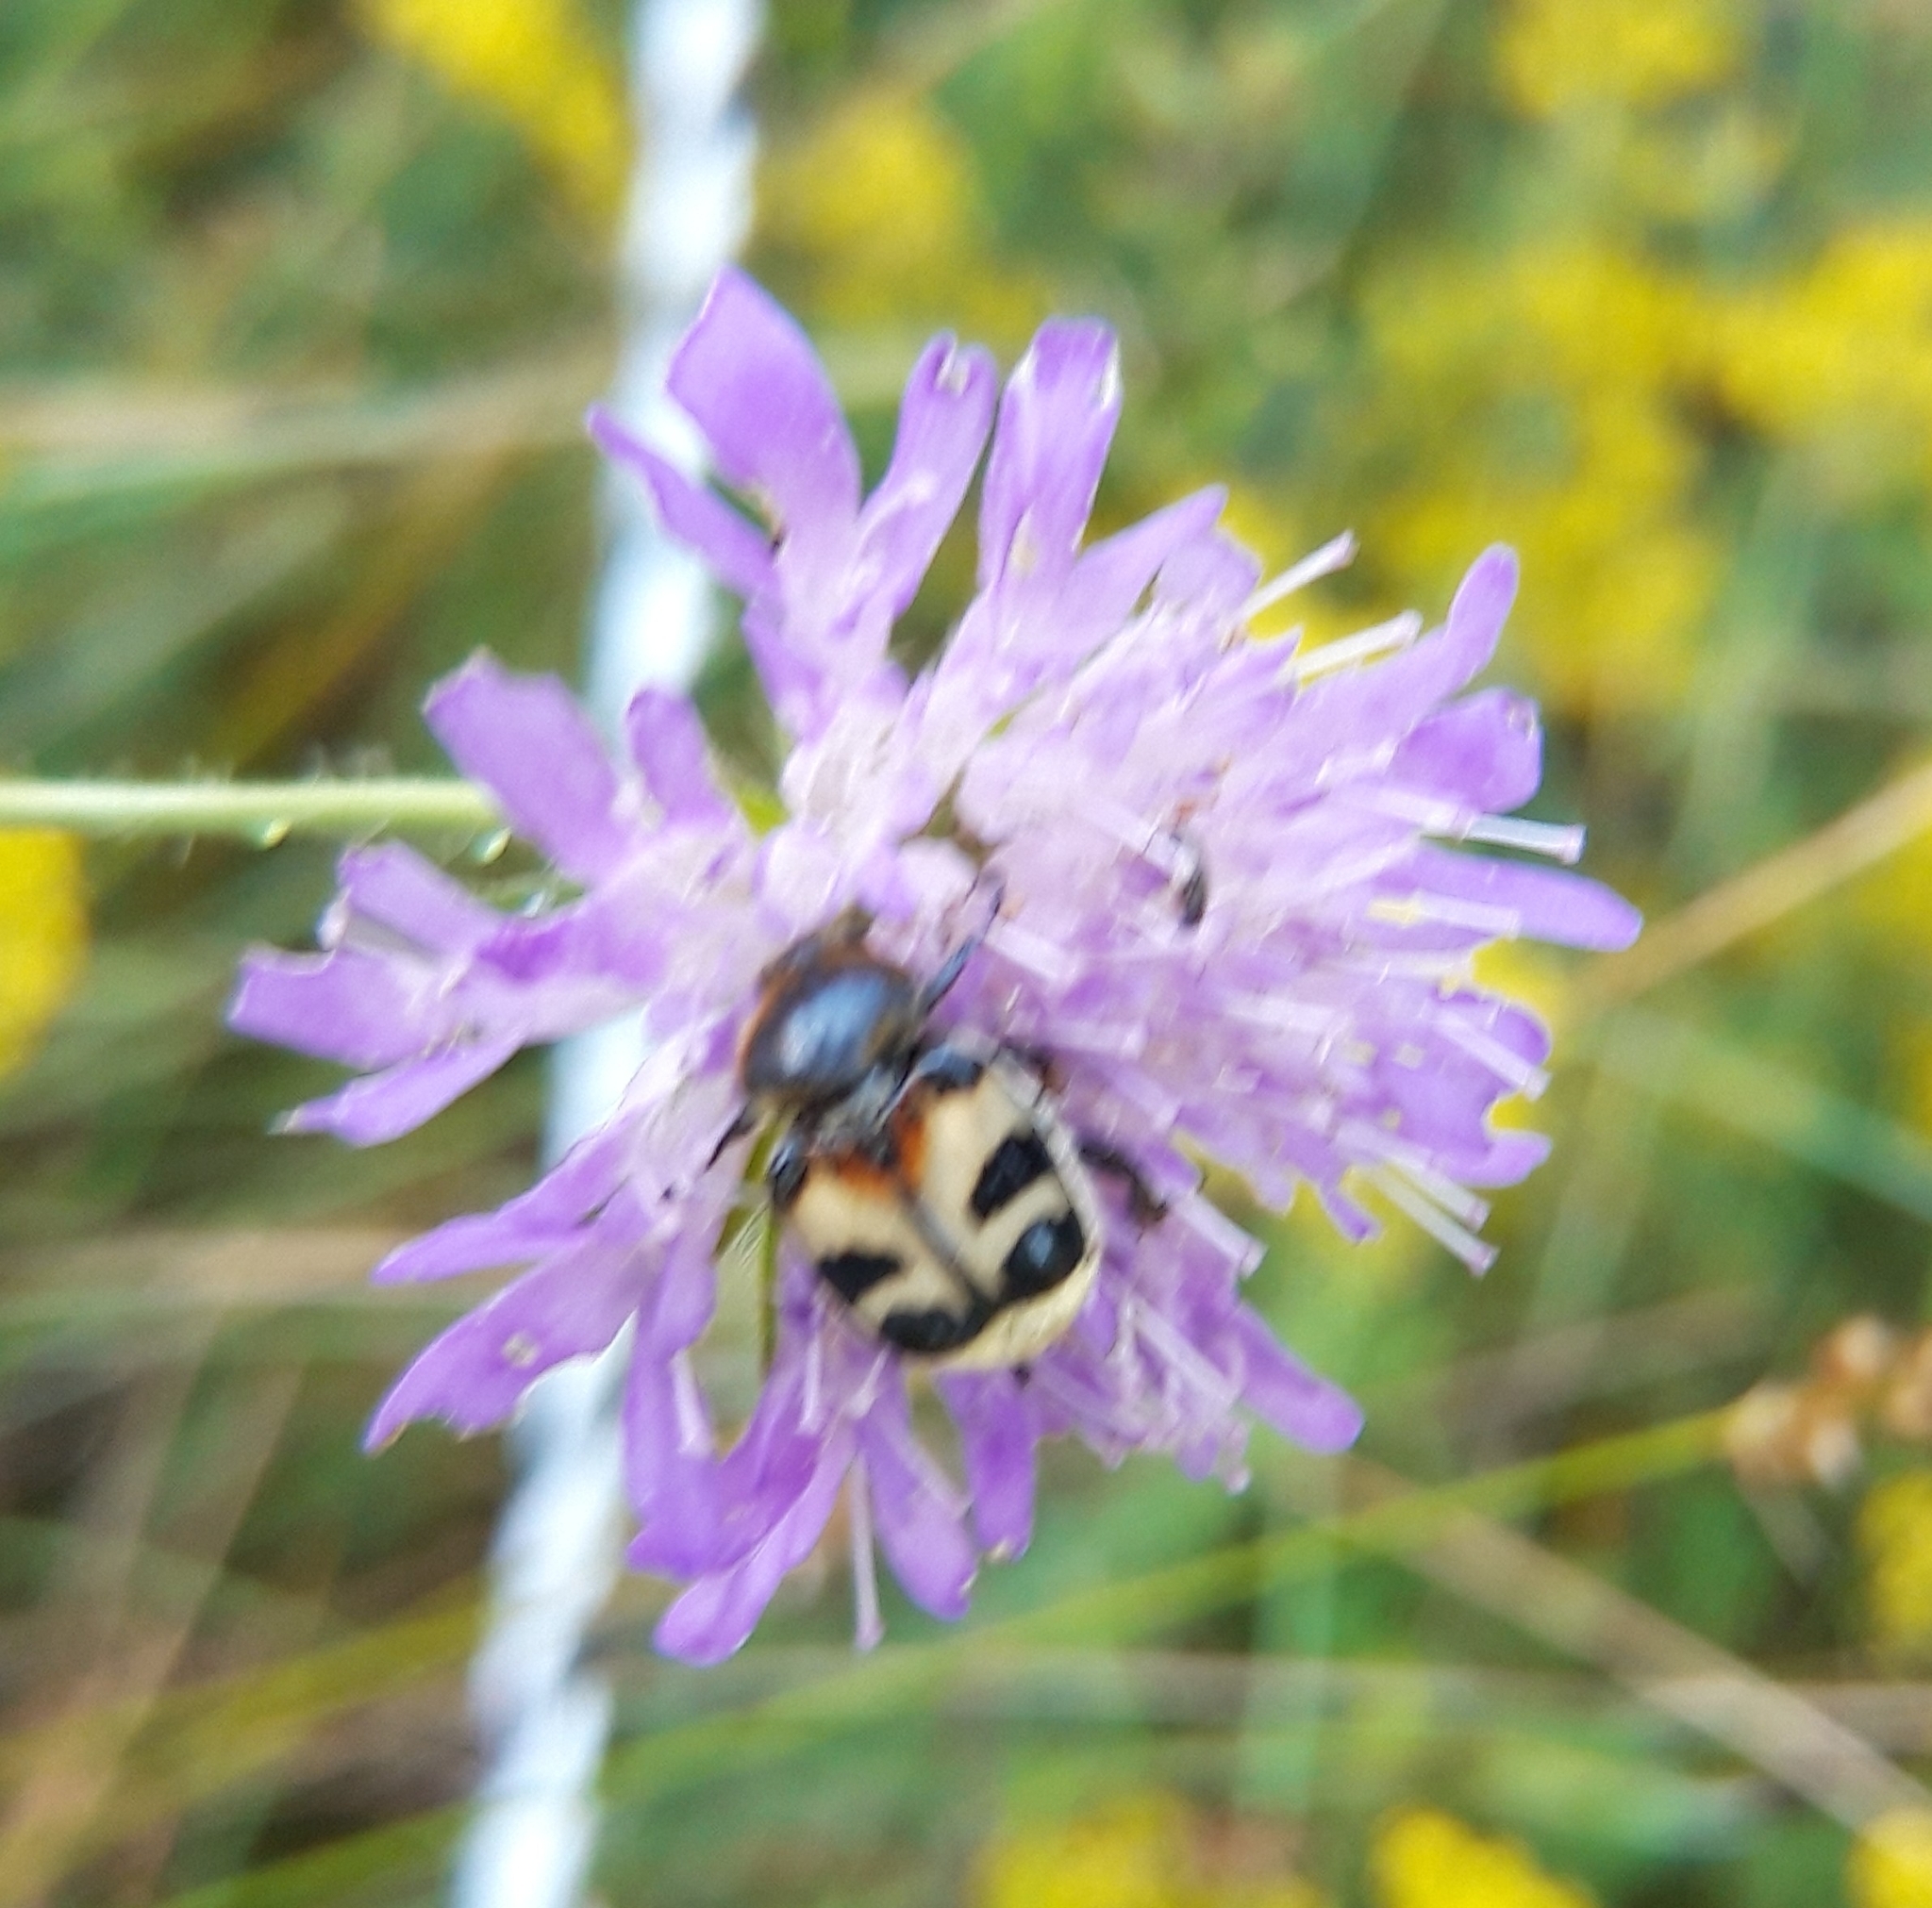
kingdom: Animalia
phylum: Arthropoda
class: Insecta
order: Coleoptera
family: Scarabaeidae
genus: Trichius
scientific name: Trichius fasciatus
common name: Bee beetle
